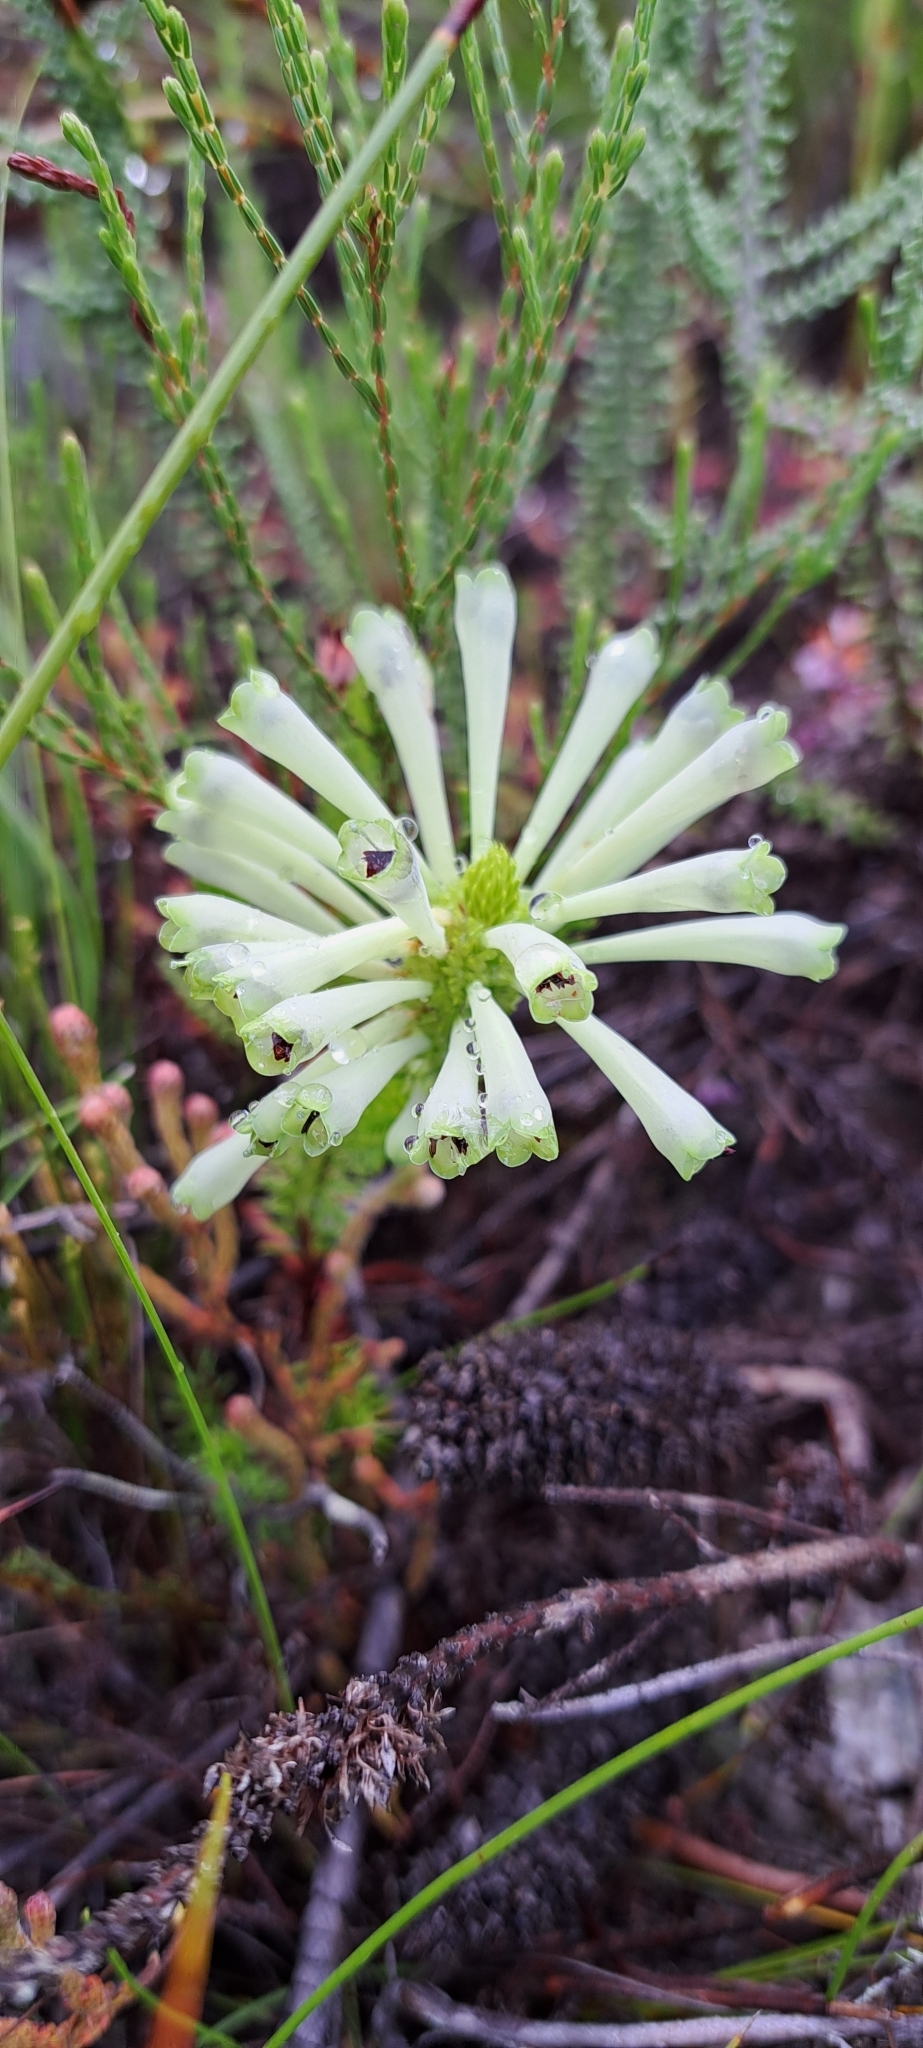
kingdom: Plantae
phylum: Tracheophyta
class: Magnoliopsida
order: Ericales
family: Ericaceae
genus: Erica
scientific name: Erica sessiliflora
